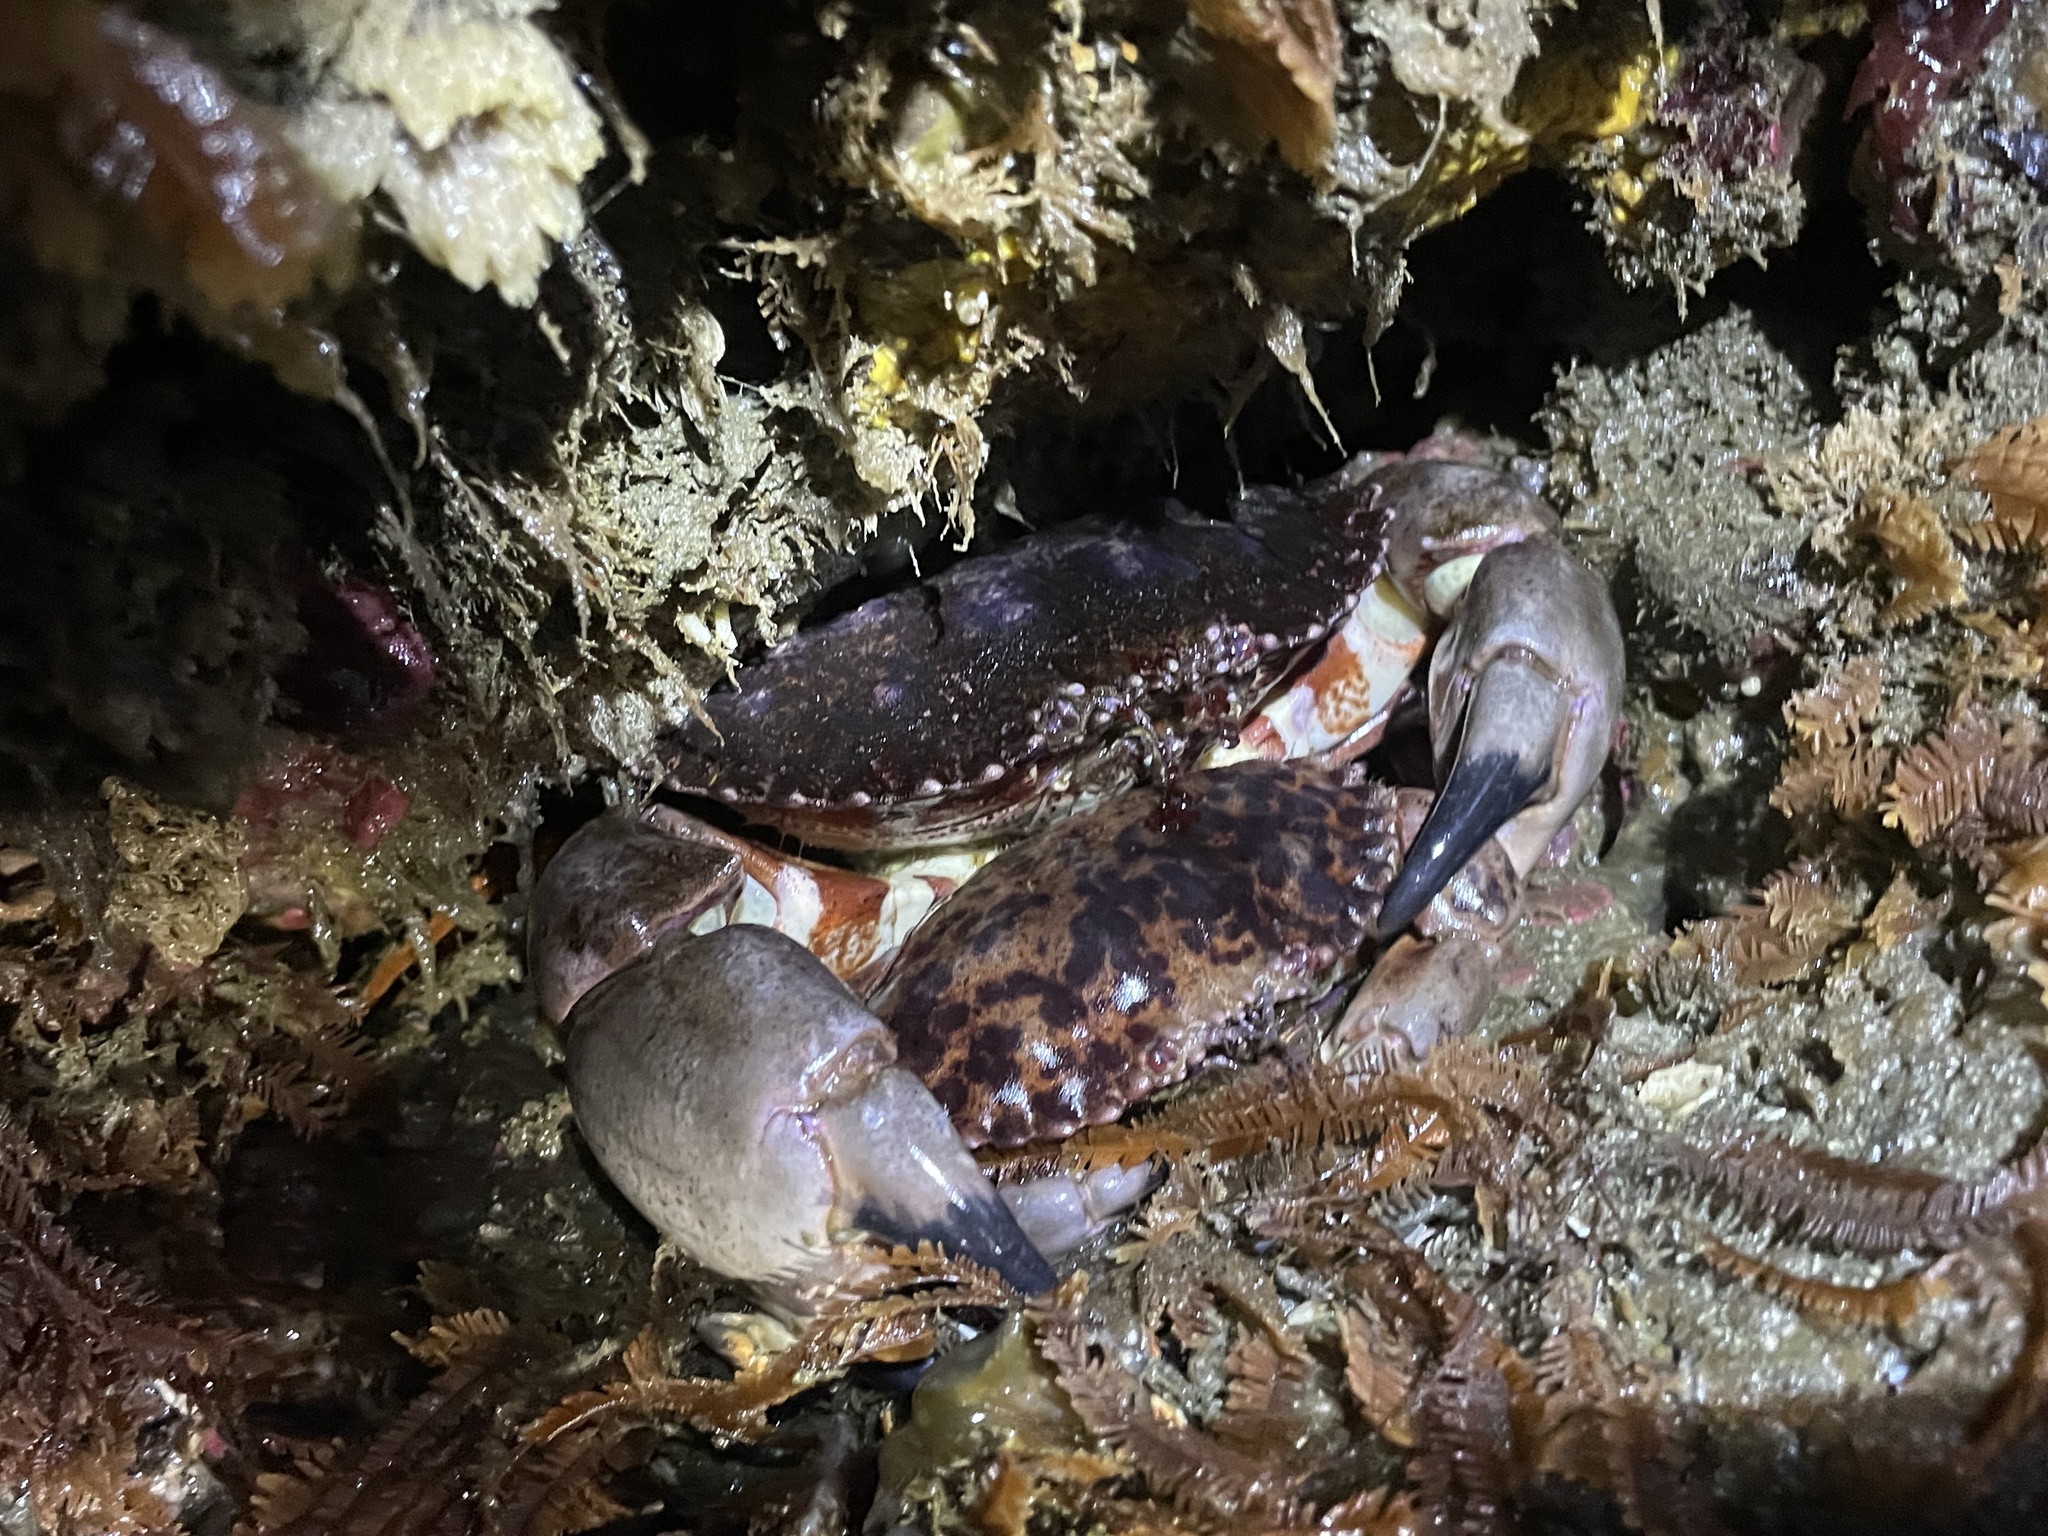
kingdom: Animalia
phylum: Arthropoda
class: Malacostraca
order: Decapoda
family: Cancridae
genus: Romaleon
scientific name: Romaleon antennarium
